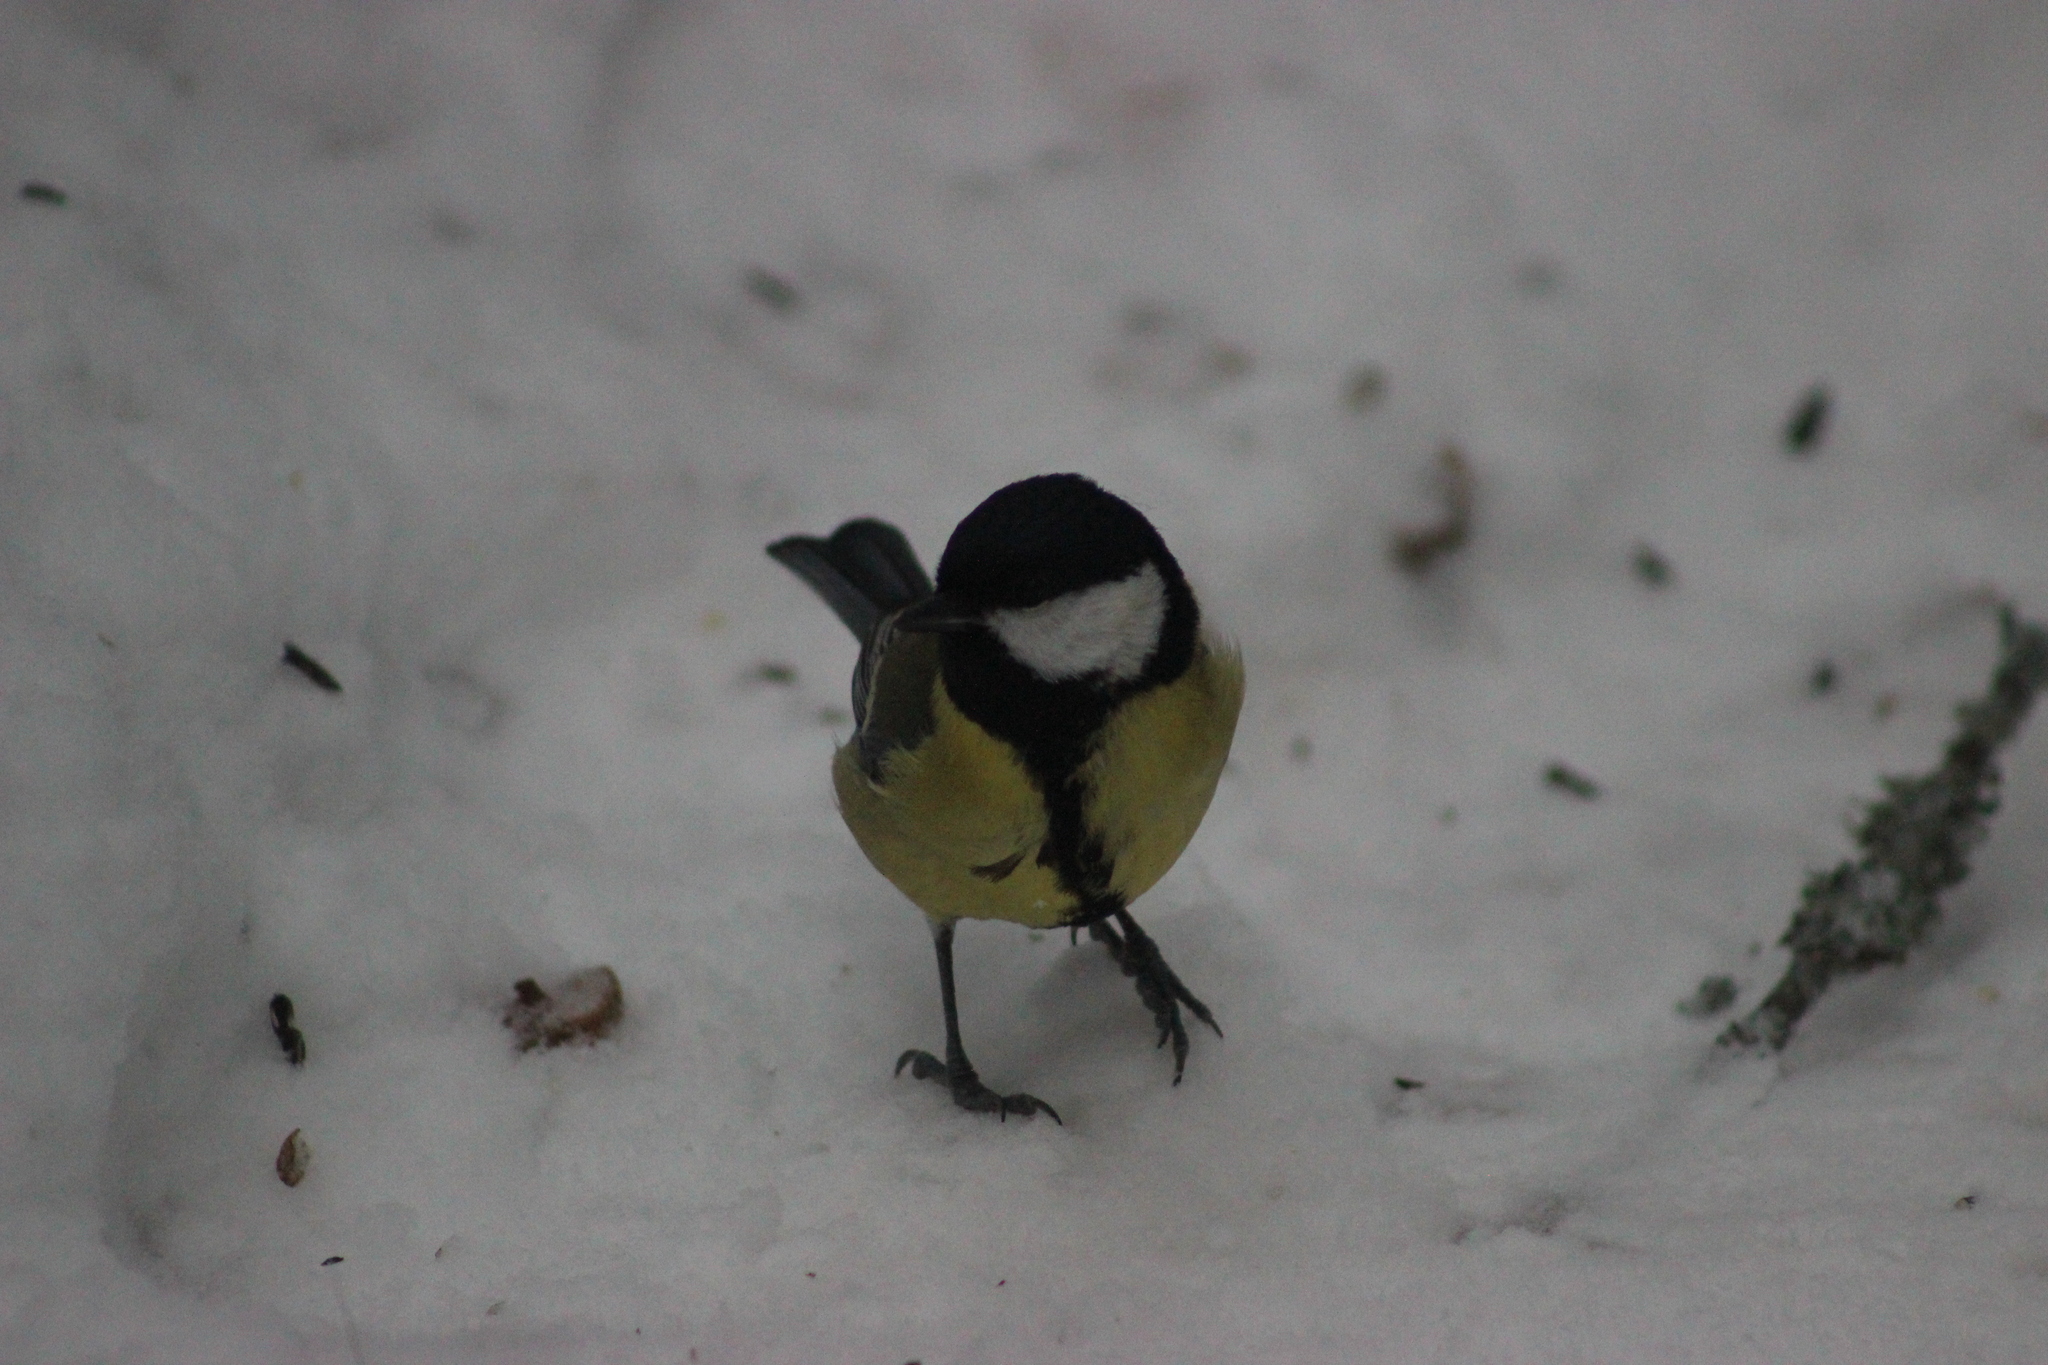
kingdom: Animalia
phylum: Chordata
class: Aves
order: Passeriformes
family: Paridae
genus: Parus
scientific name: Parus major
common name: Great tit
